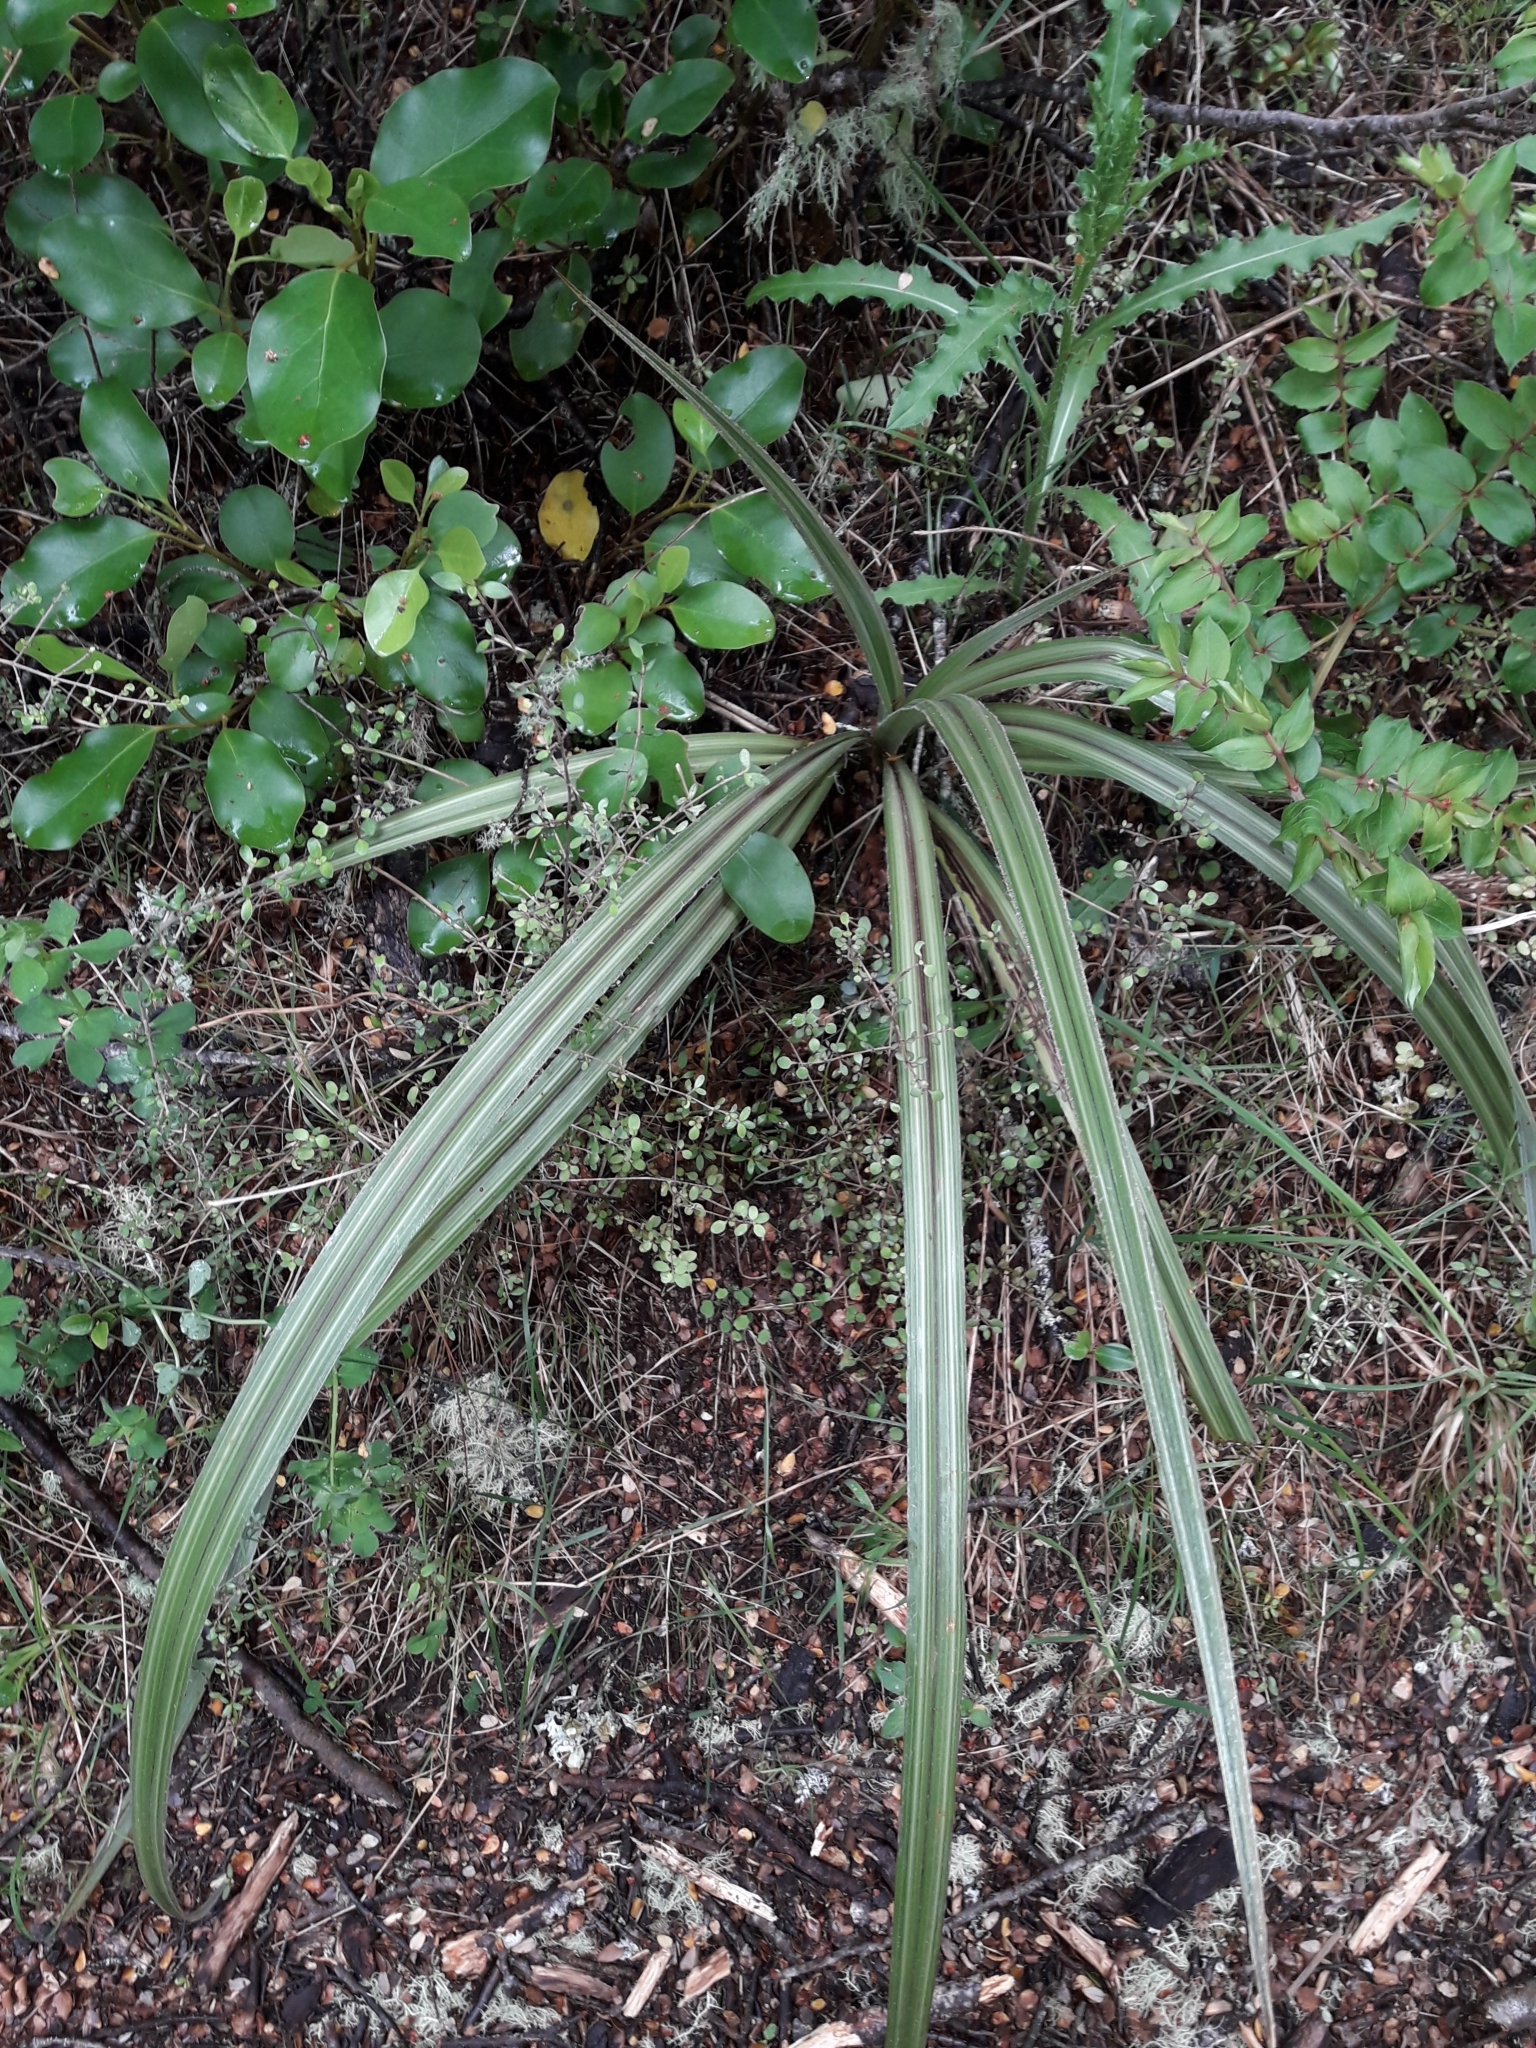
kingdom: Plantae
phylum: Tracheophyta
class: Liliopsida
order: Asparagales
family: Asteliaceae
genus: Astelia
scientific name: Astelia nervosa
